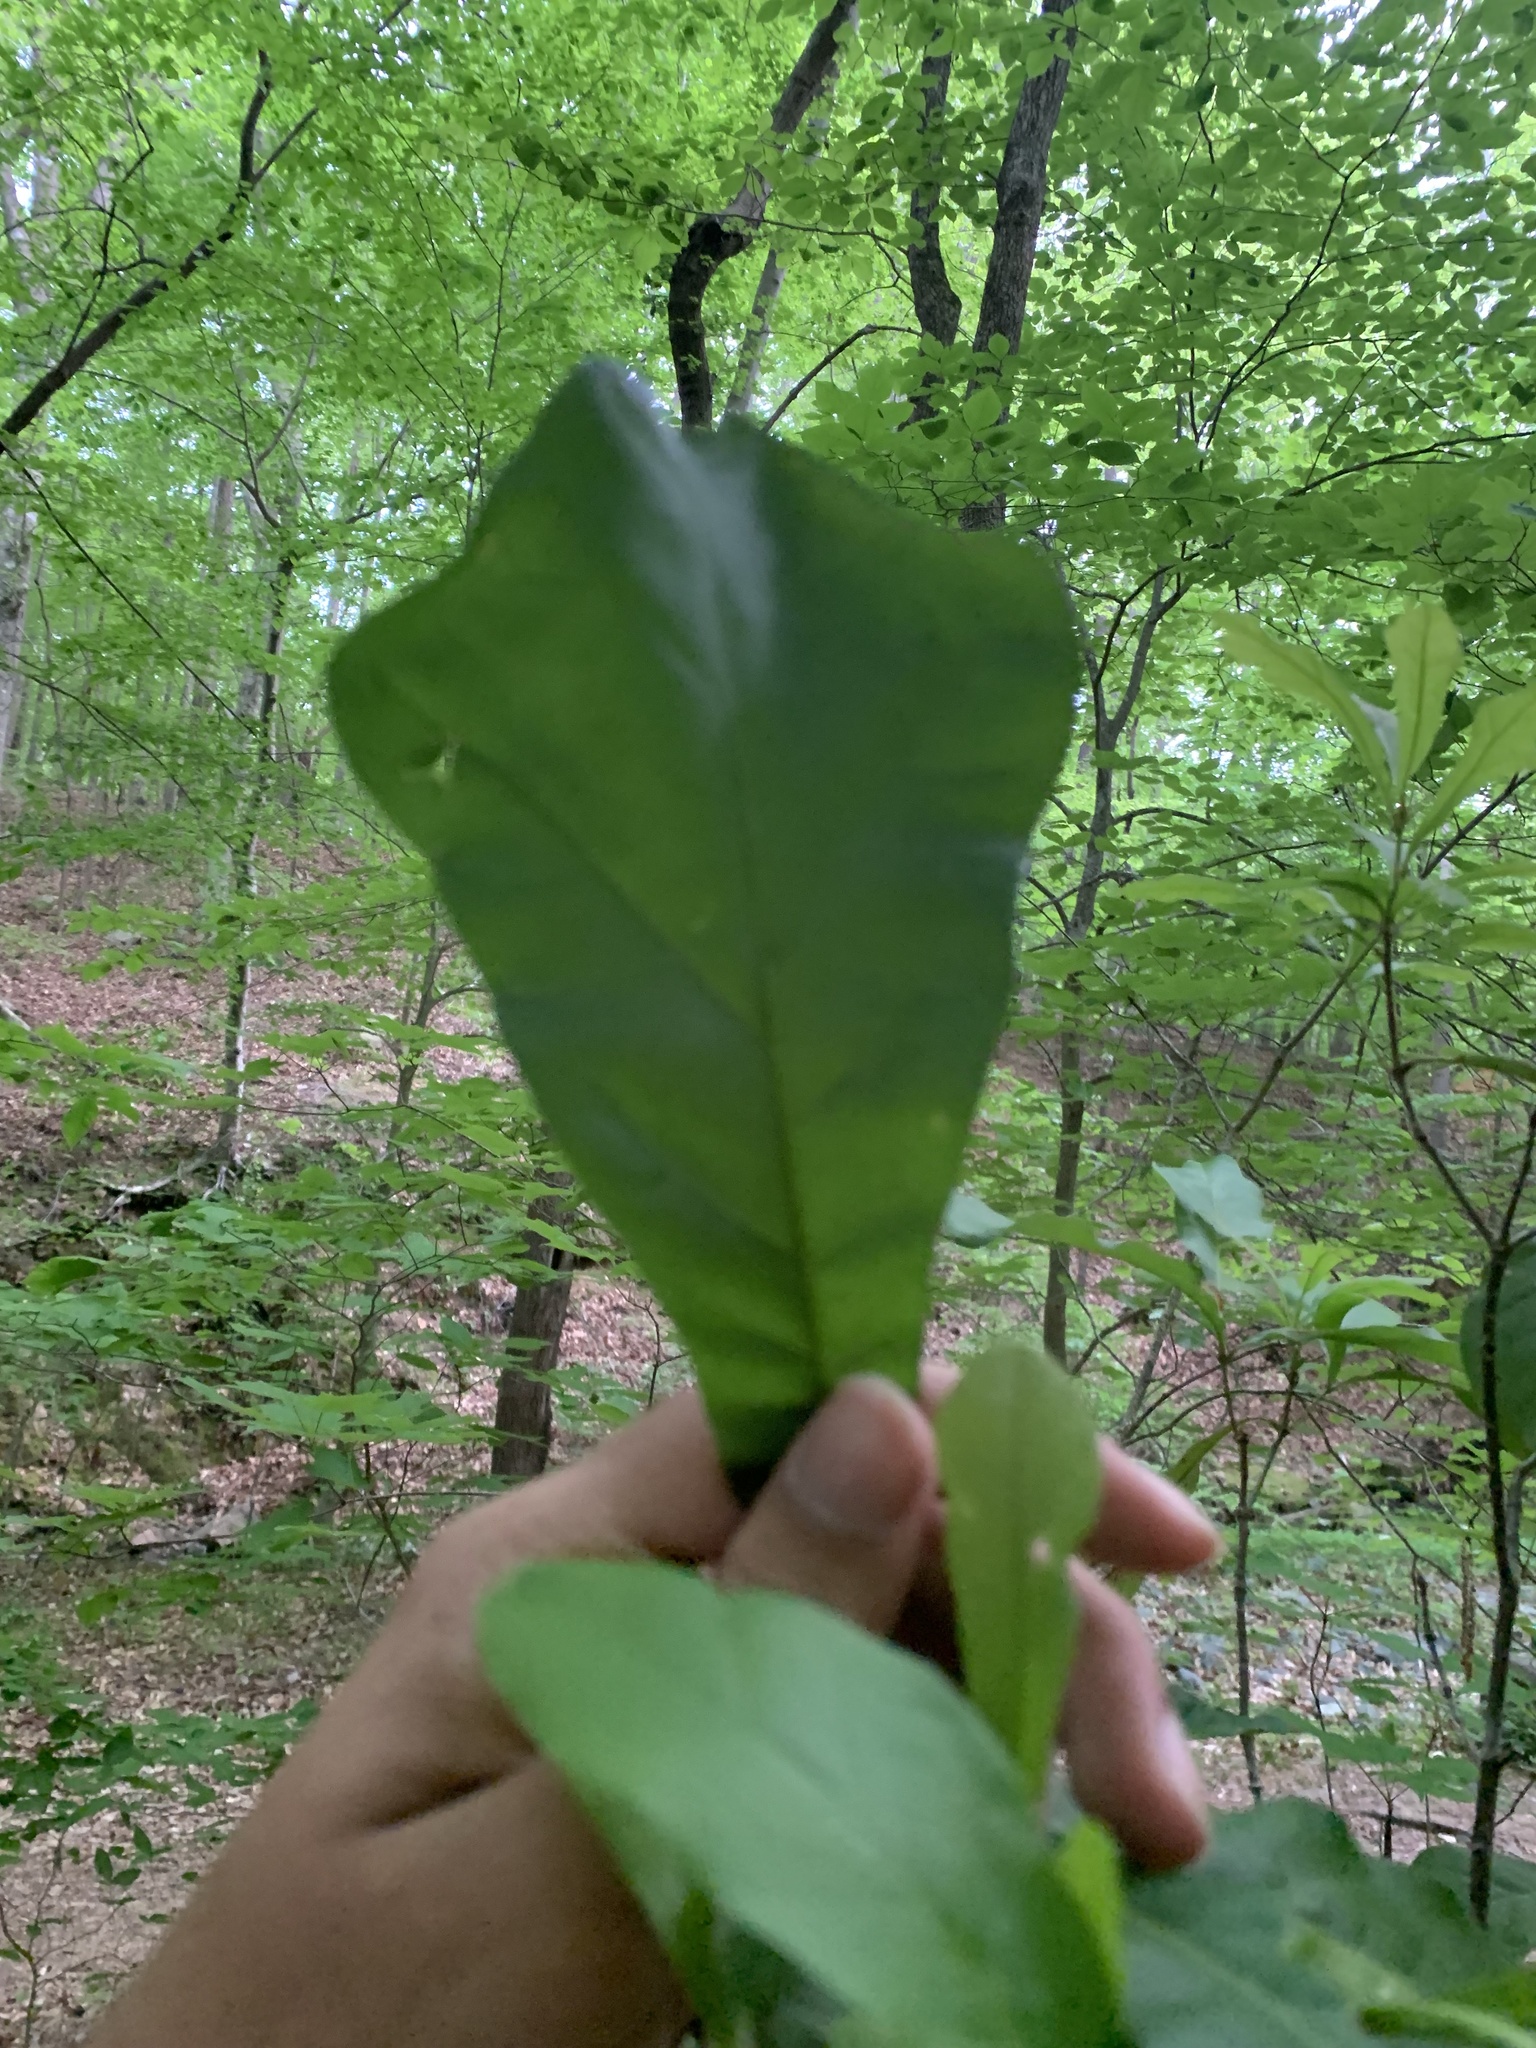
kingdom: Plantae
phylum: Tracheophyta
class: Magnoliopsida
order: Fagales
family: Fagaceae
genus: Quercus
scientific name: Quercus nigra
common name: Water oak
